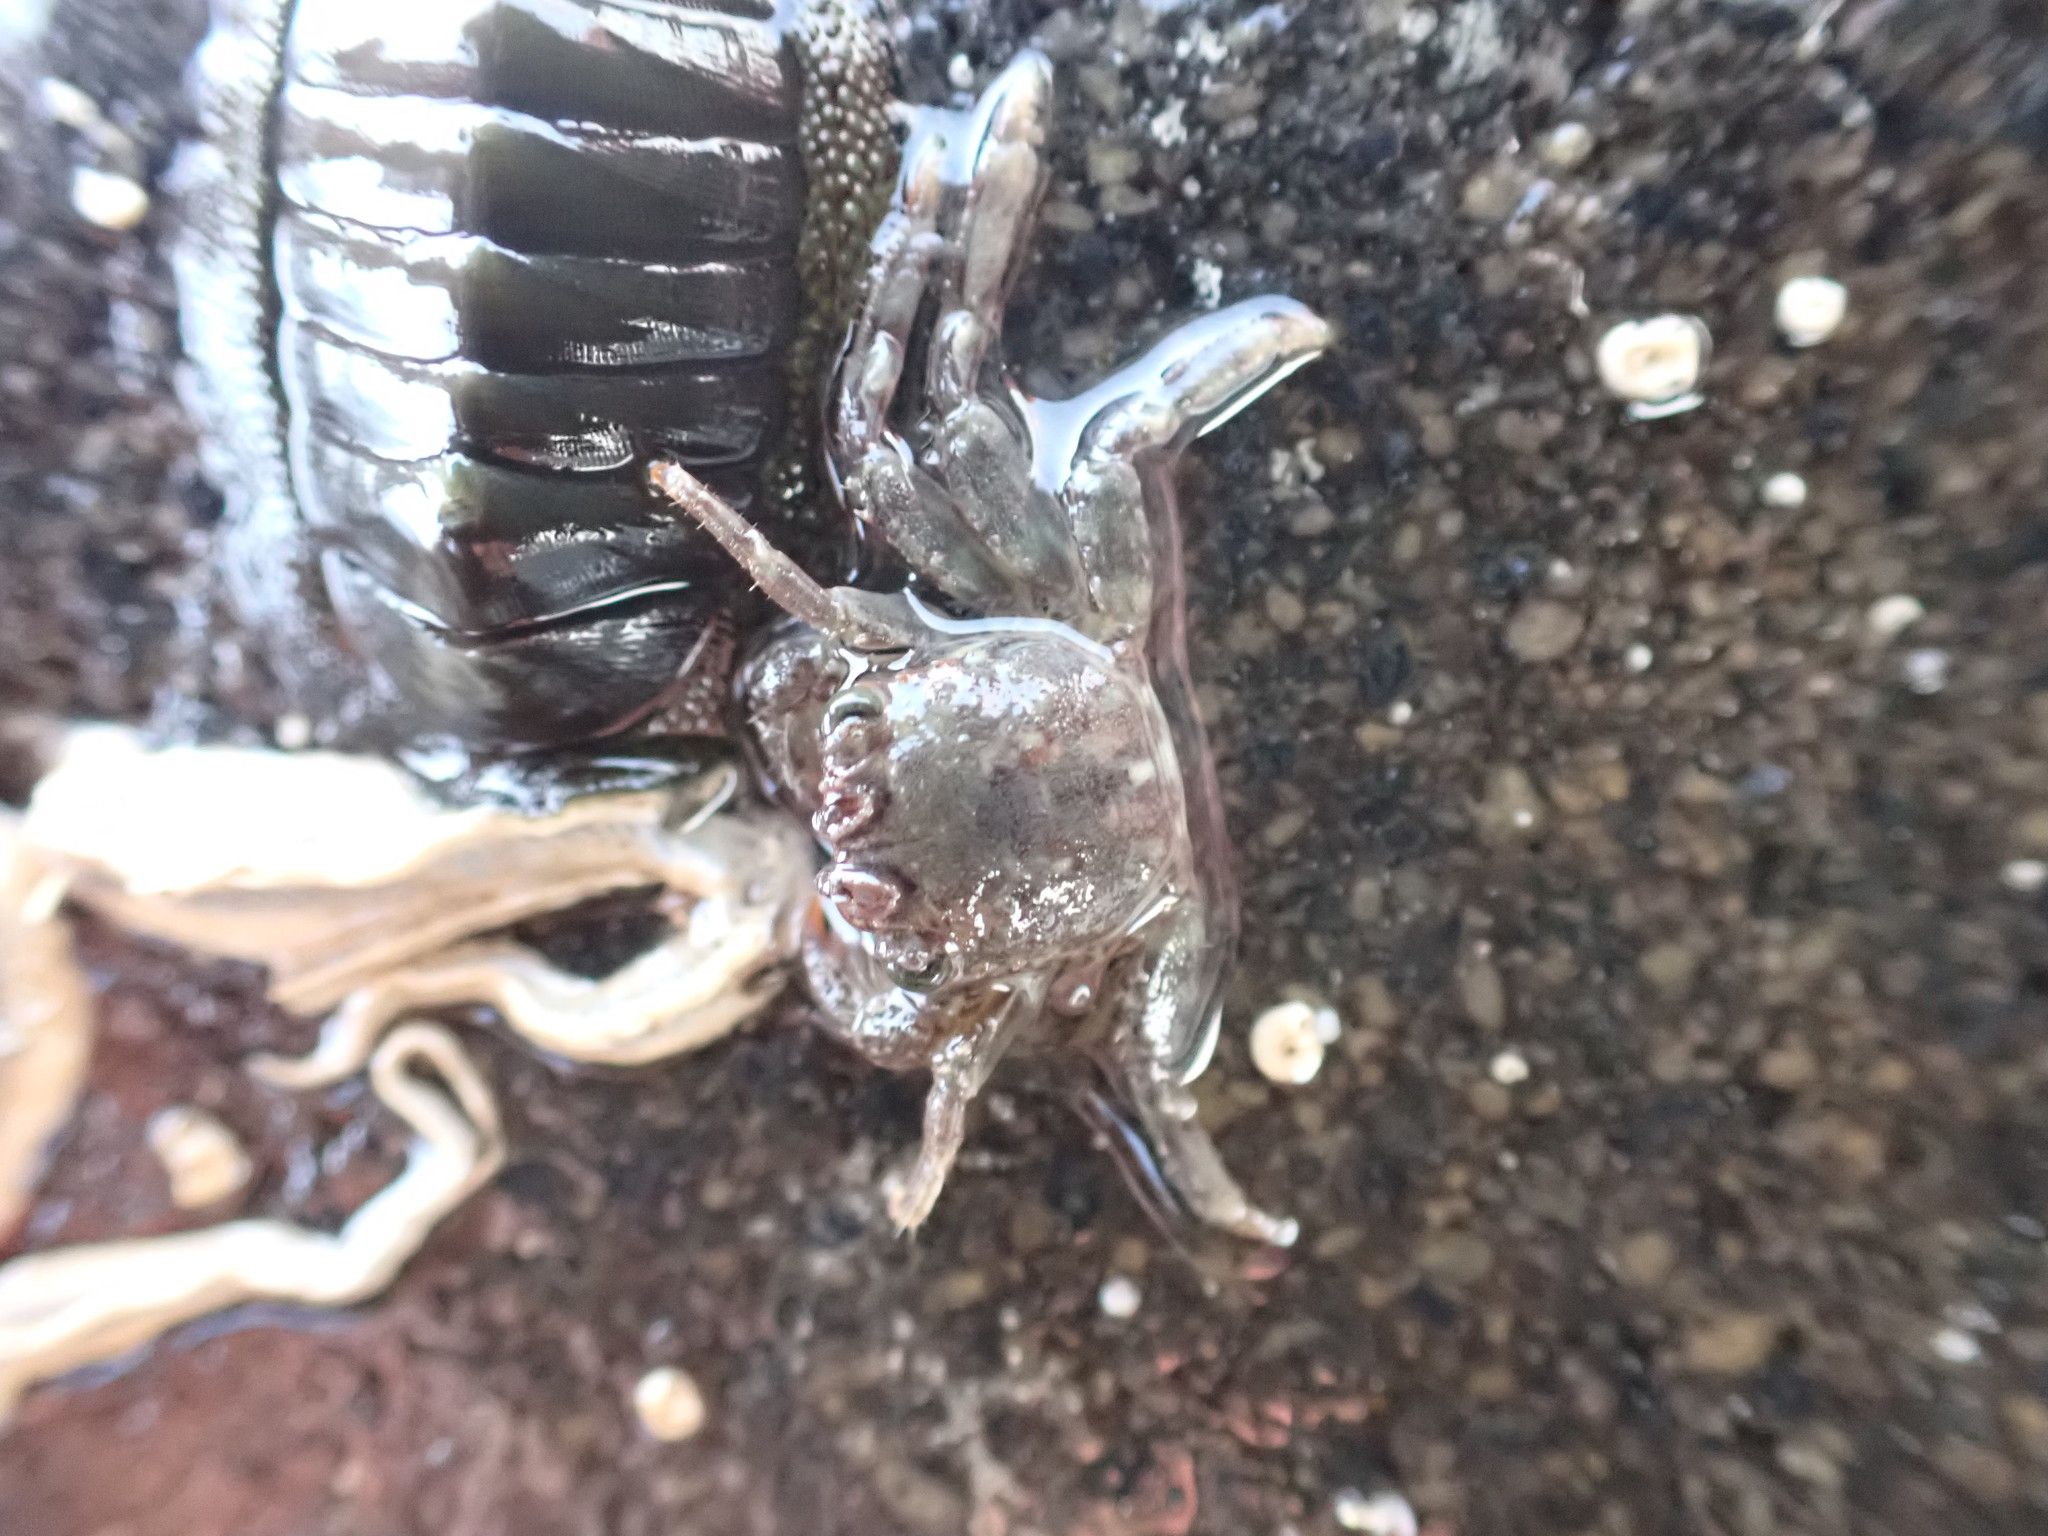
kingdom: Animalia
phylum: Arthropoda
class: Malacostraca
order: Decapoda
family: Plagusiidae
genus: Guinusia
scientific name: Guinusia chabrus
